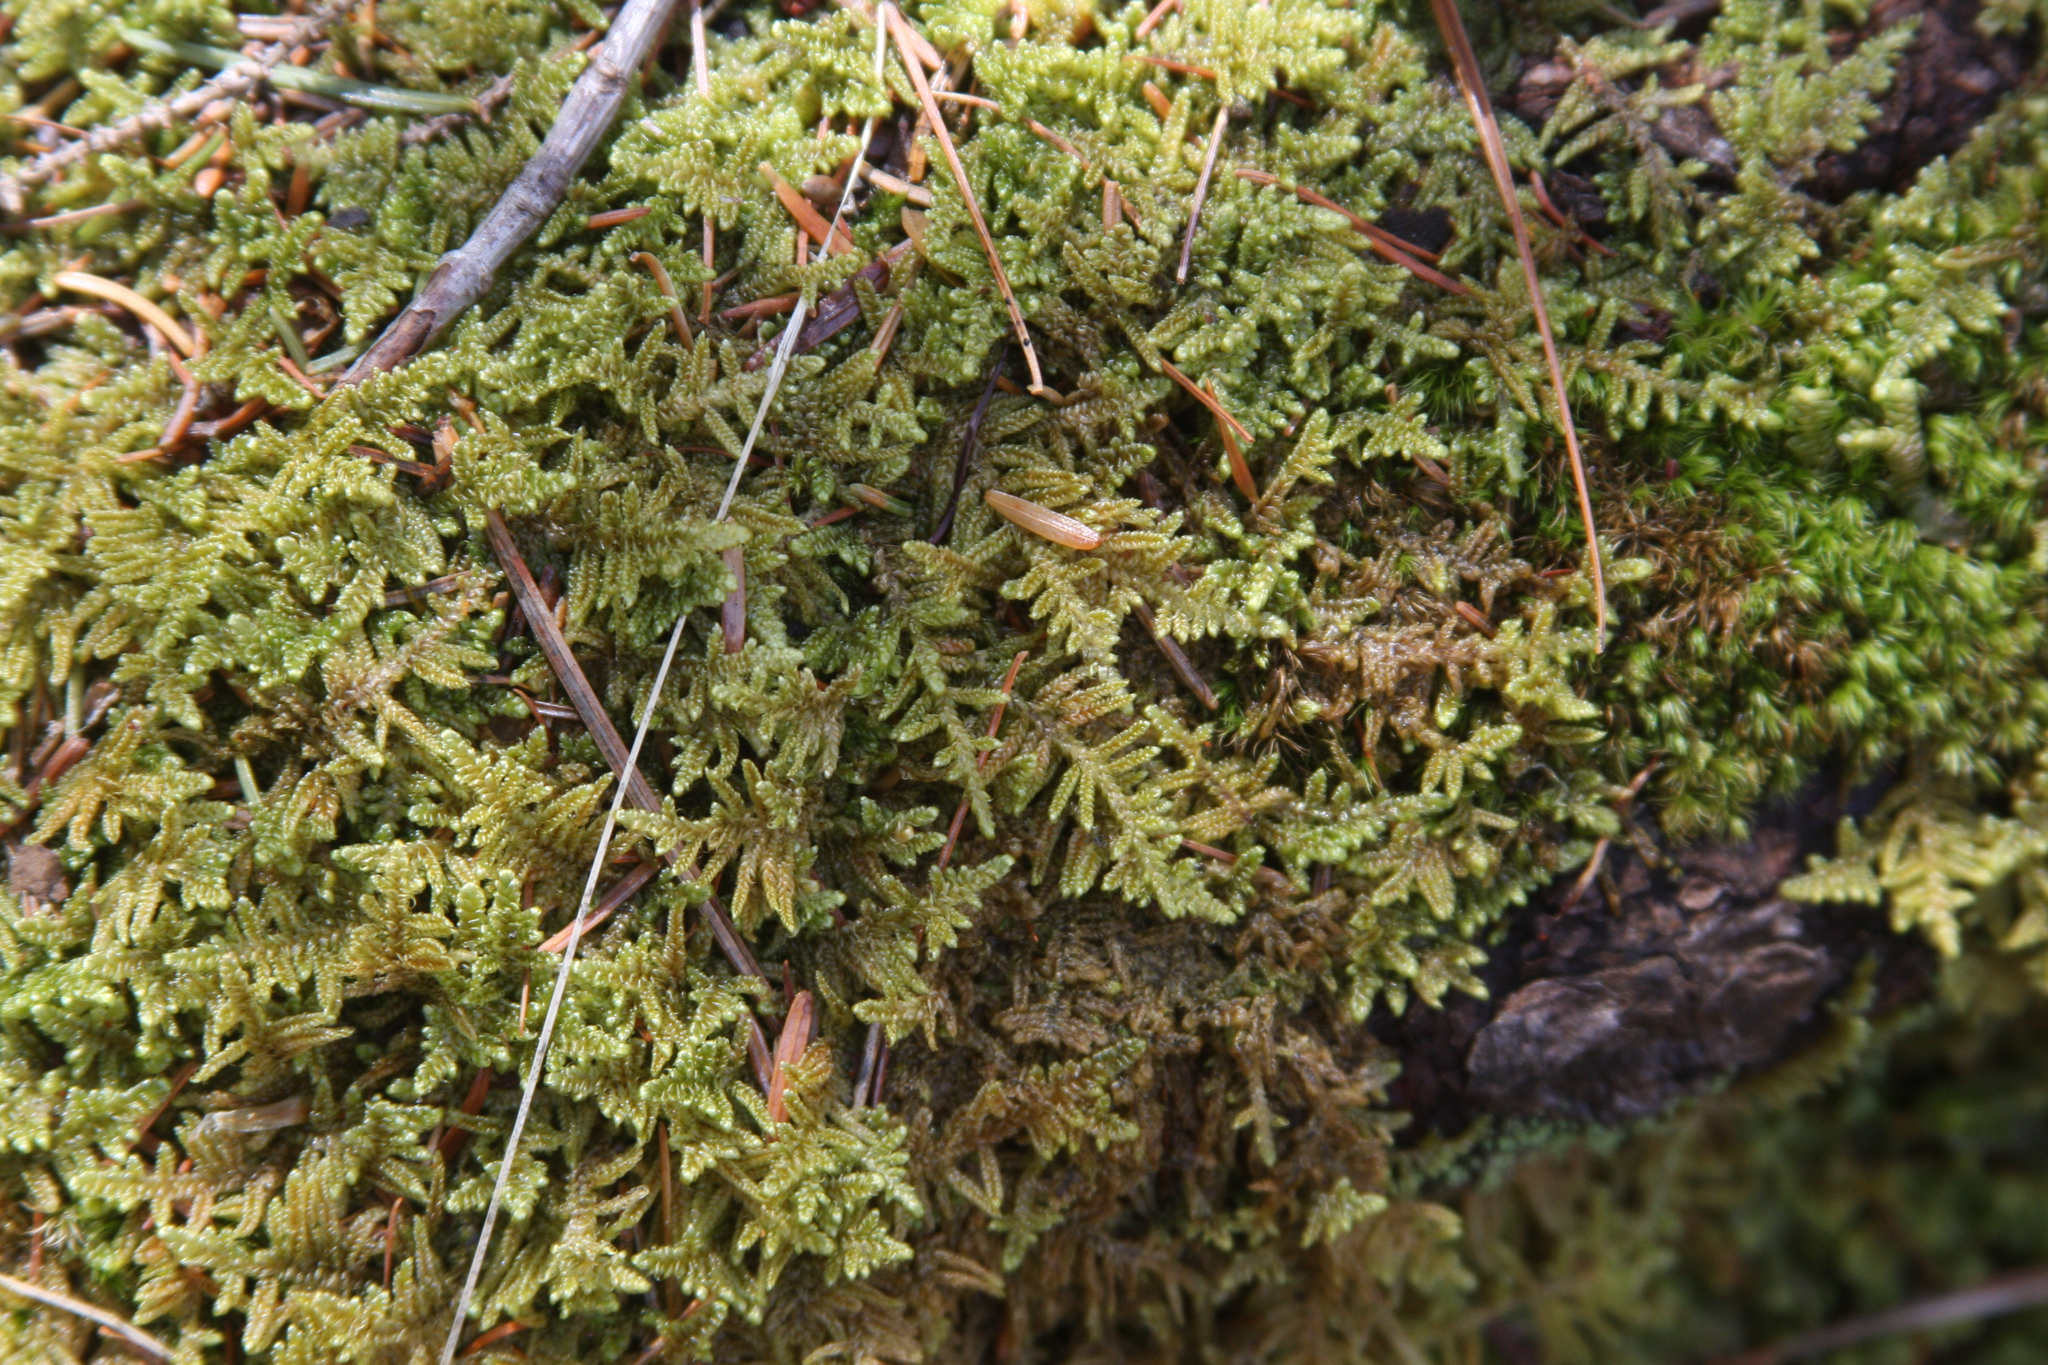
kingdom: Plantae
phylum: Bryophyta
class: Bryopsida
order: Hypnales
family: Callicladiaceae
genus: Callicladium
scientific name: Callicladium imponens
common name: Brocade moss
